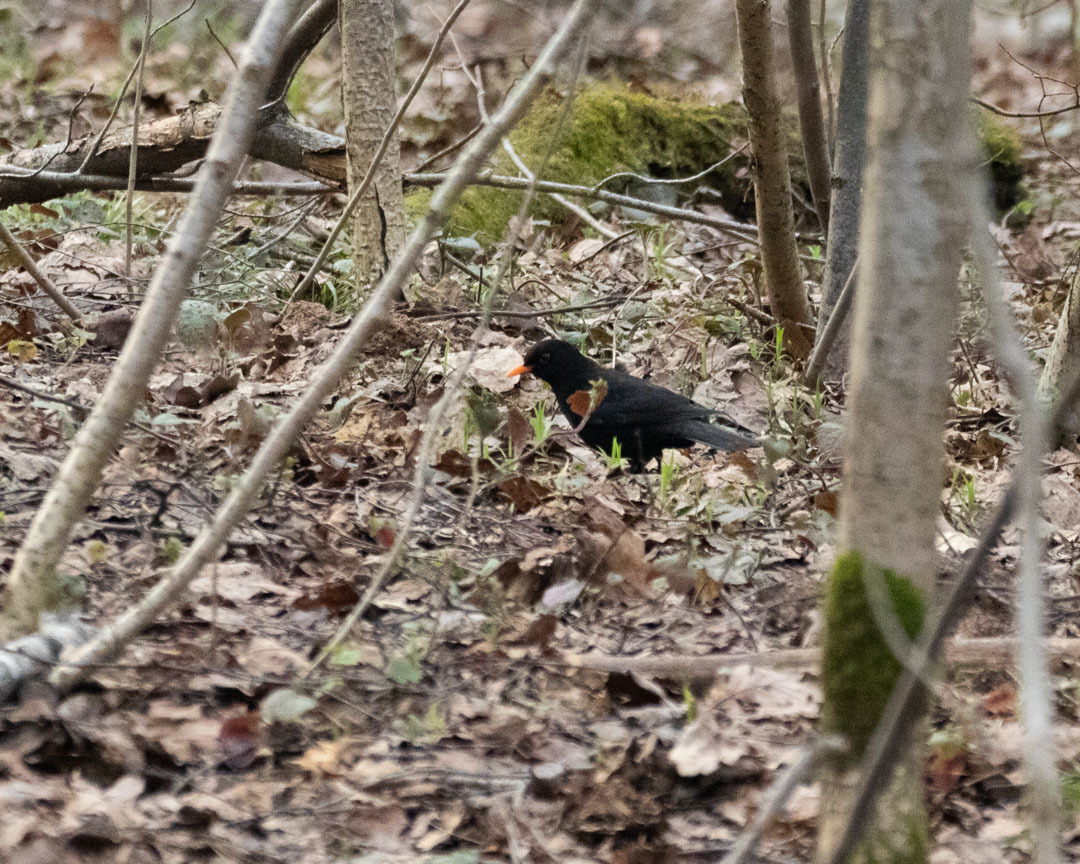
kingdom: Animalia
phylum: Chordata
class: Aves
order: Passeriformes
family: Turdidae
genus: Turdus
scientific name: Turdus merula
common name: Common blackbird
